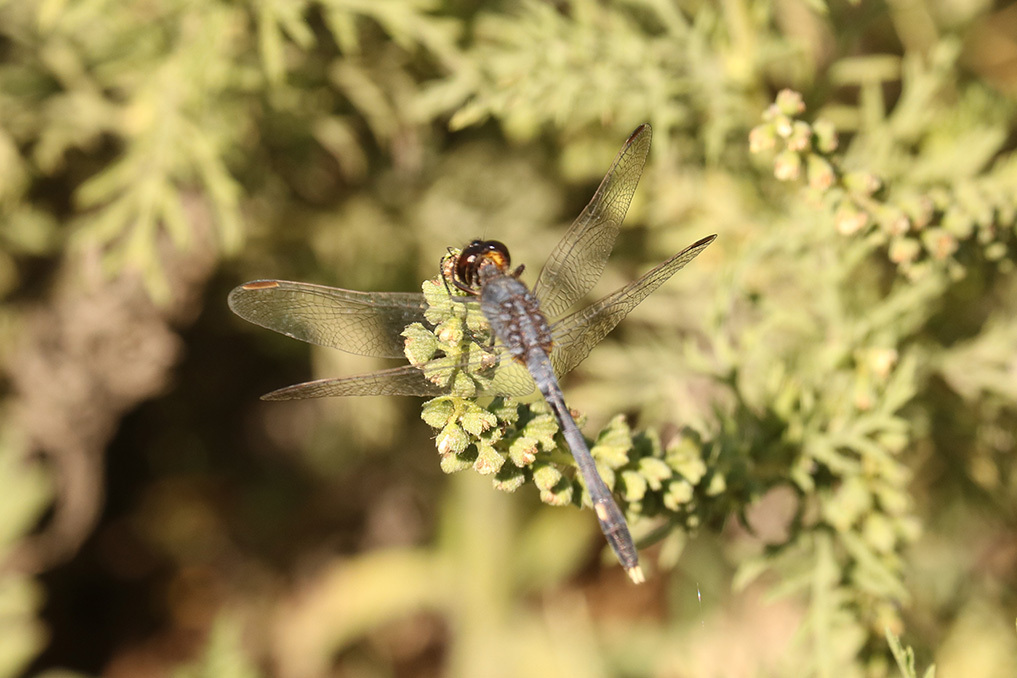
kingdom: Animalia
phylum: Arthropoda
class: Insecta
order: Odonata
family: Libellulidae
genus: Erythrodiplax
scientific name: Erythrodiplax nigricans
